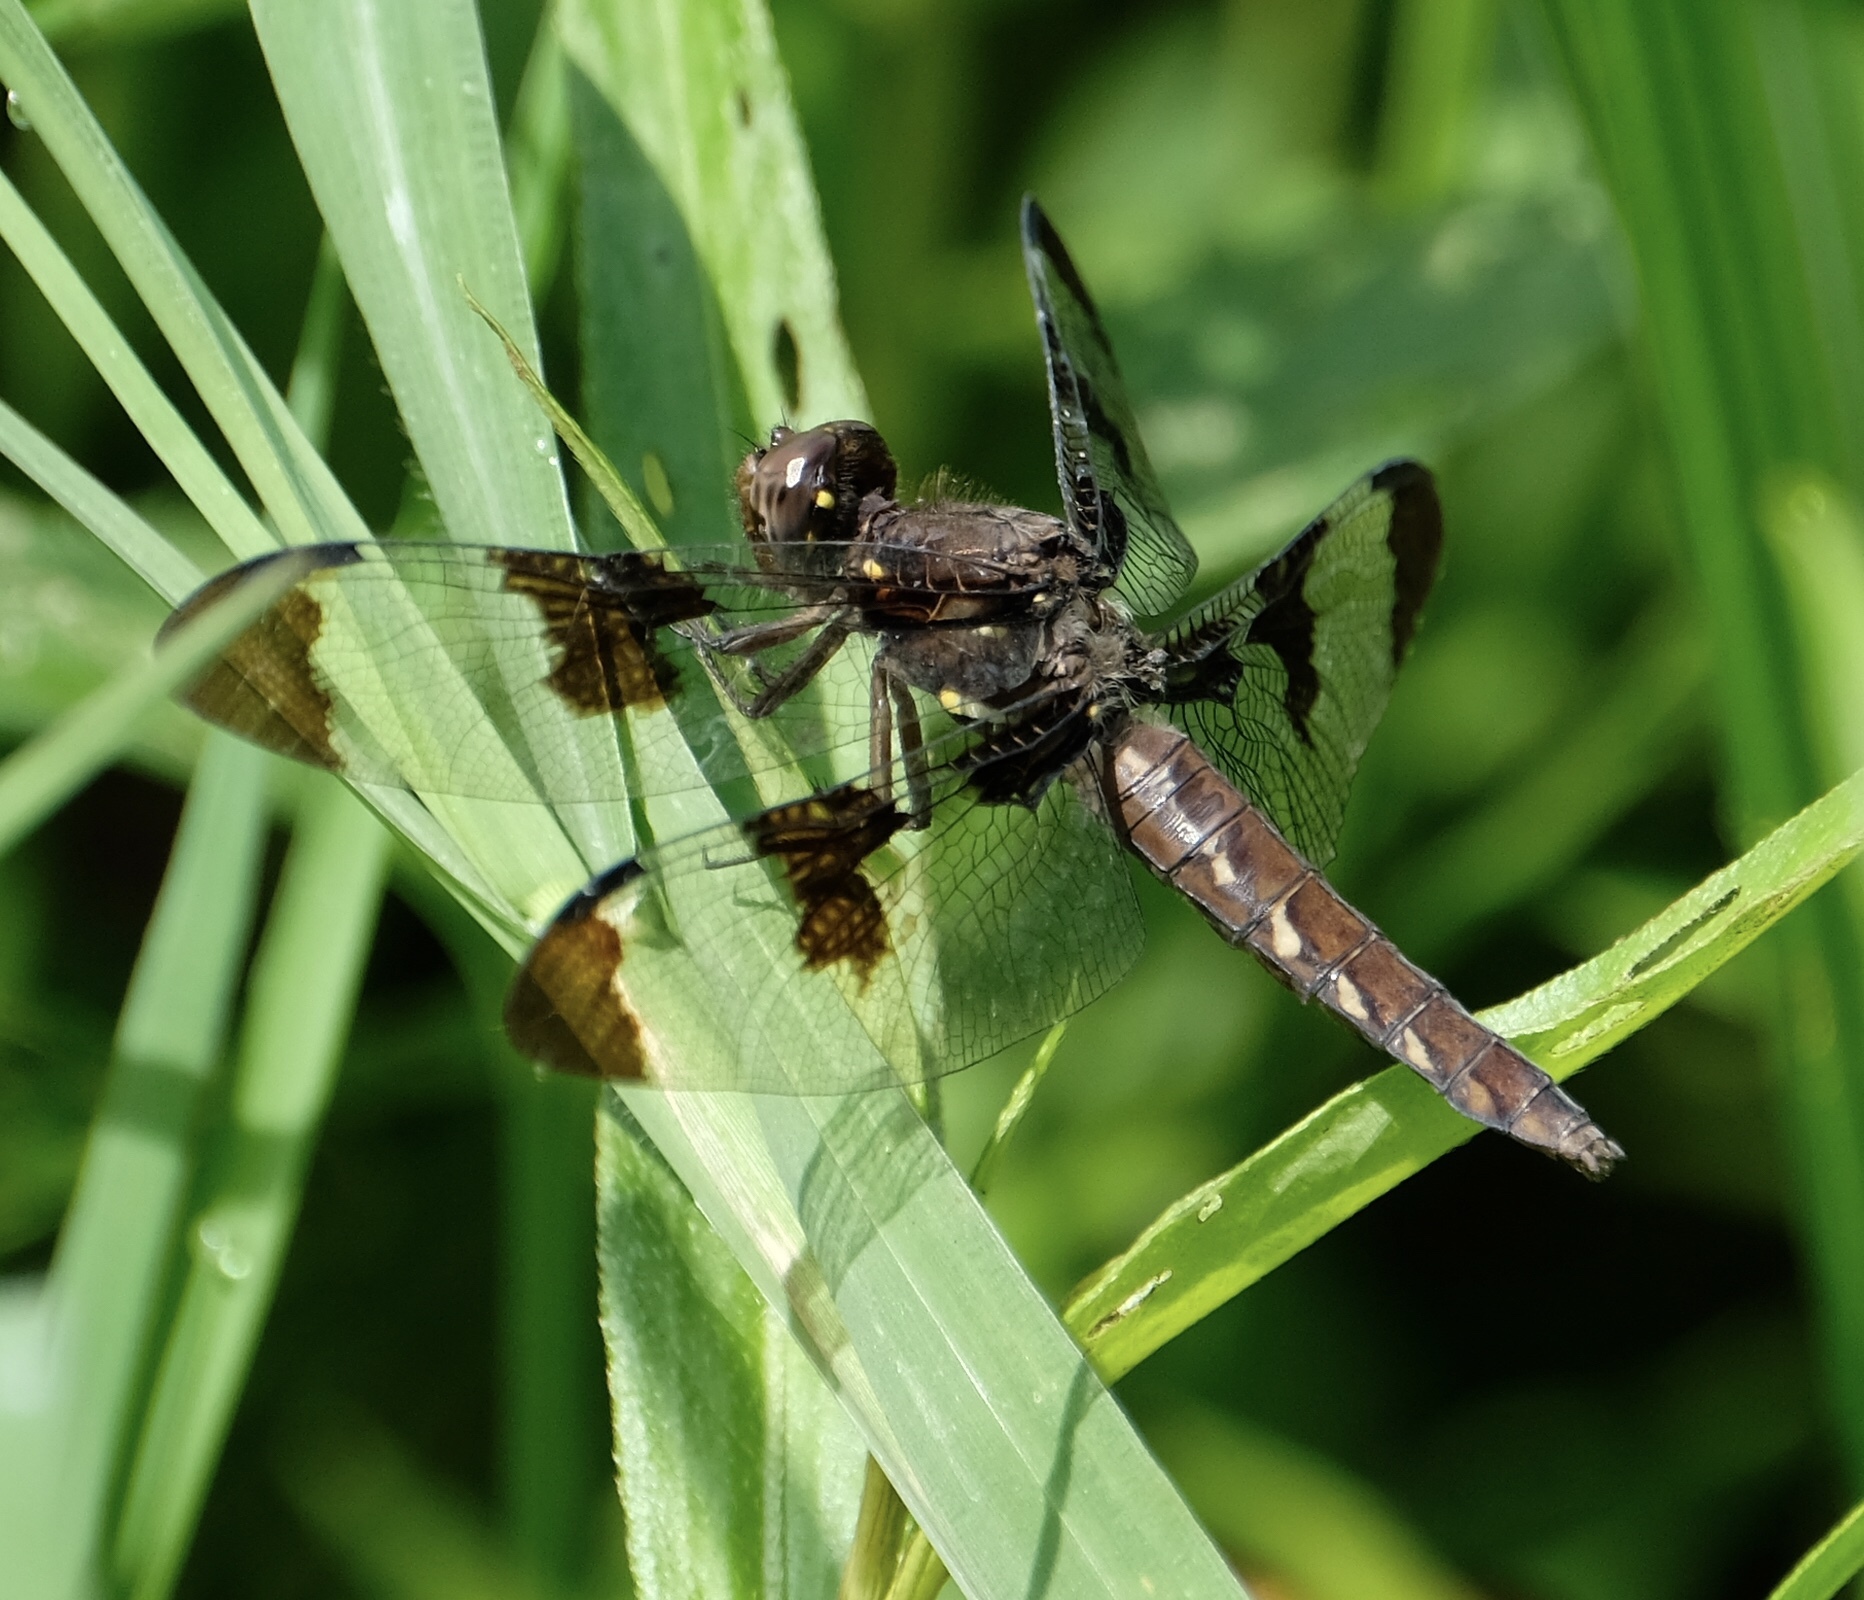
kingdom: Animalia
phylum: Arthropoda
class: Insecta
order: Odonata
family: Libellulidae
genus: Plathemis
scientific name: Plathemis lydia
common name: Common whitetail
